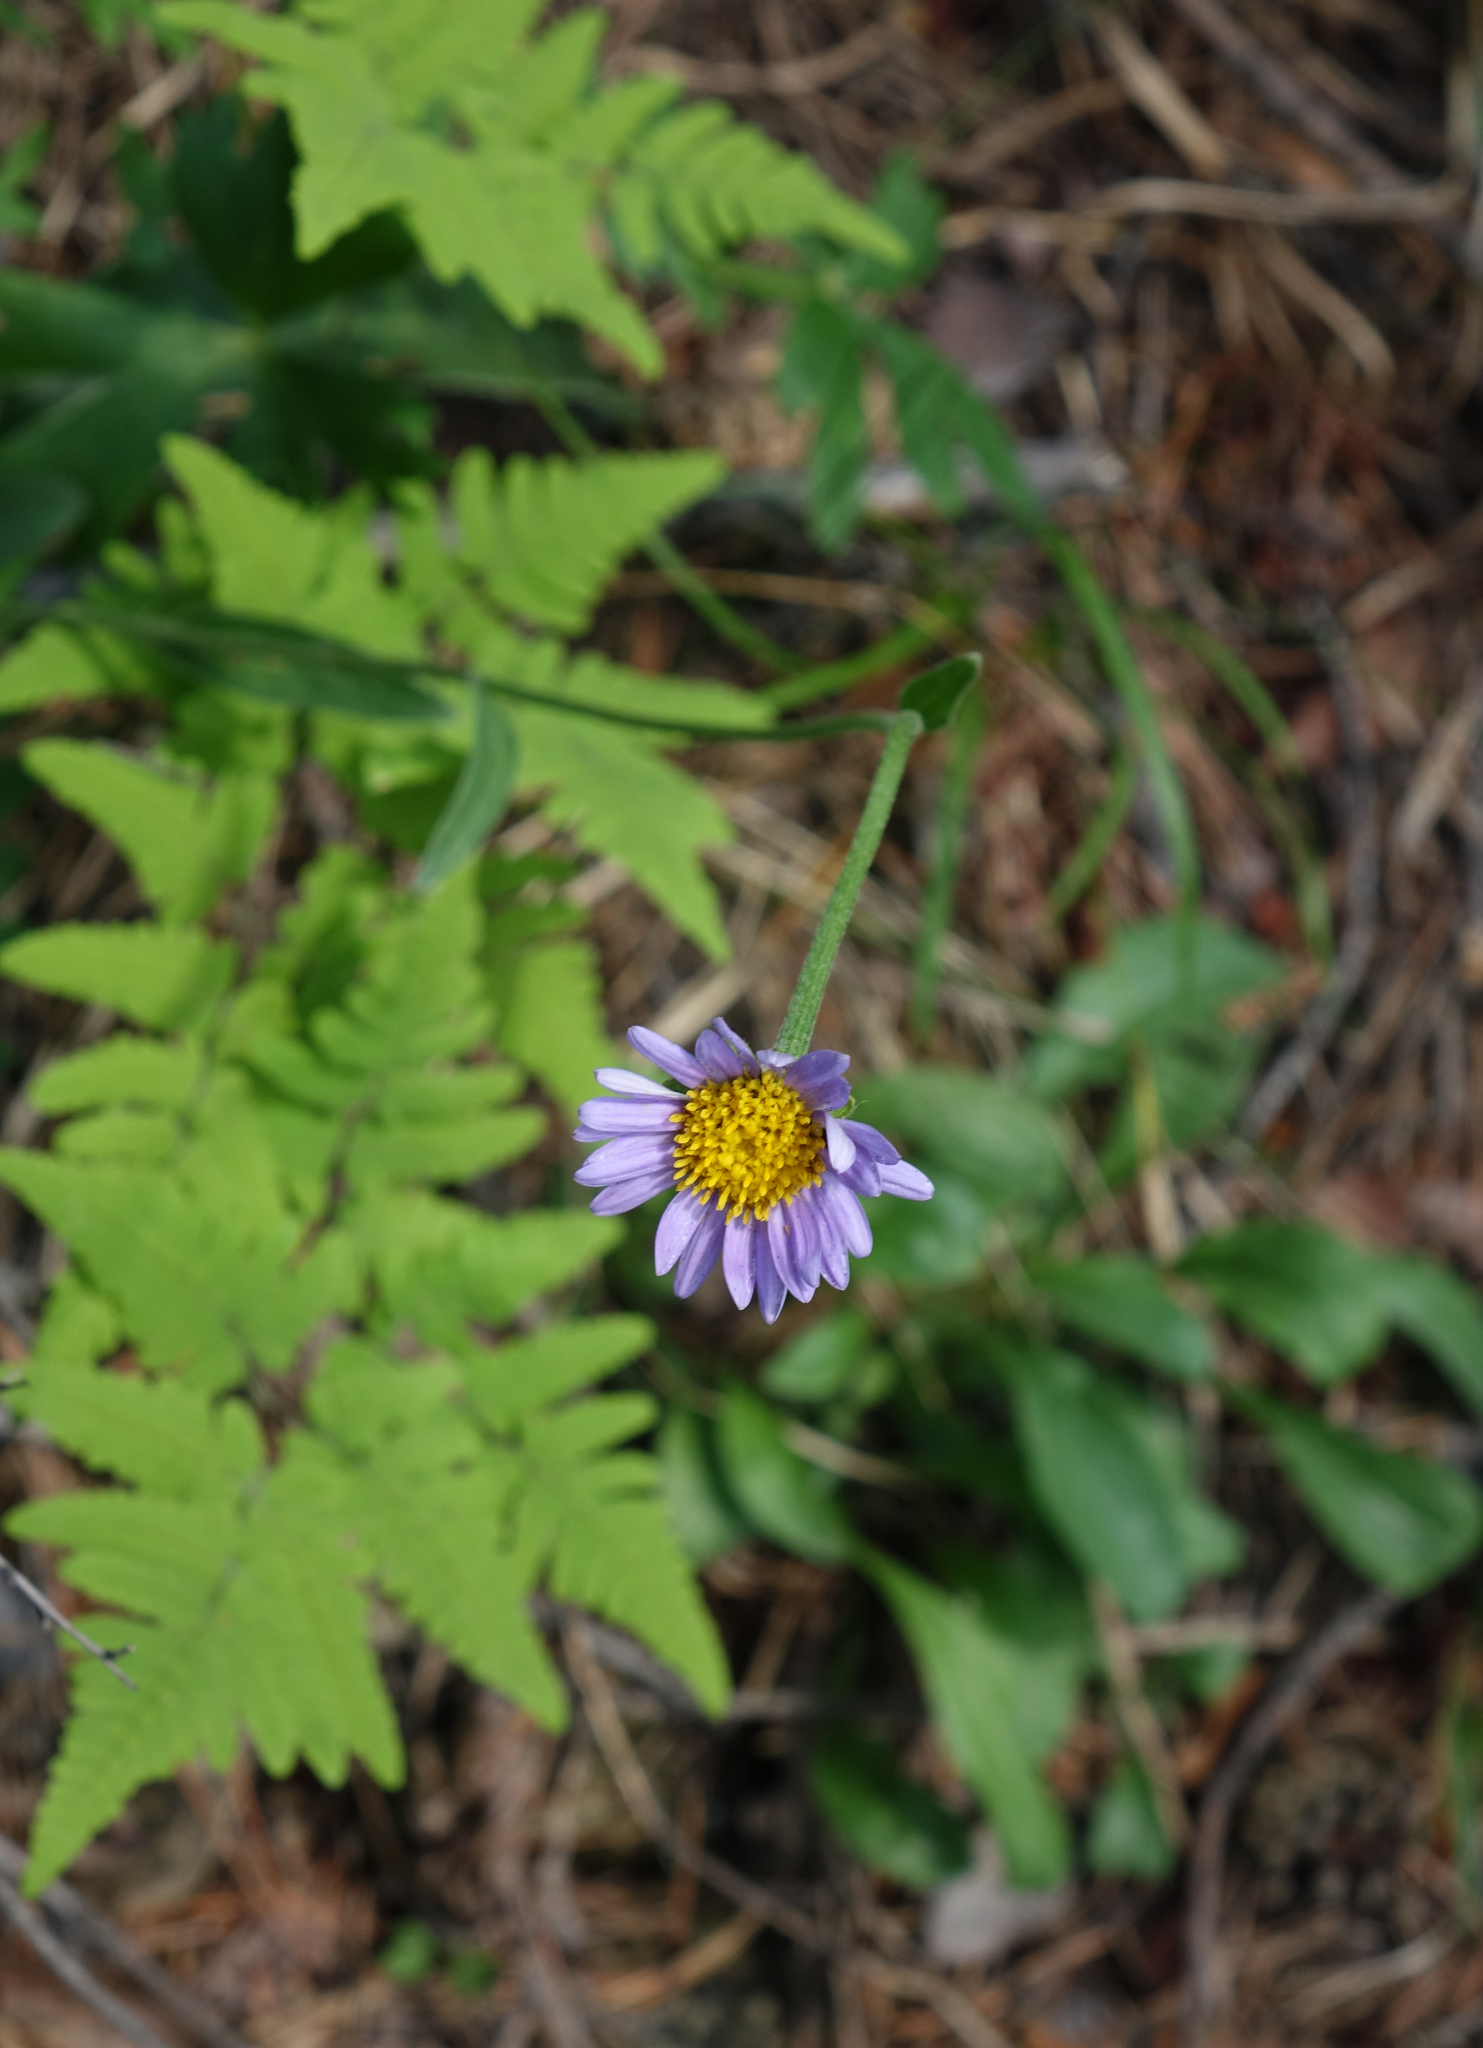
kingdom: Plantae
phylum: Tracheophyta
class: Magnoliopsida
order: Asterales
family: Asteraceae
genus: Aster
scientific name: Aster alpinus
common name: Alpine aster
